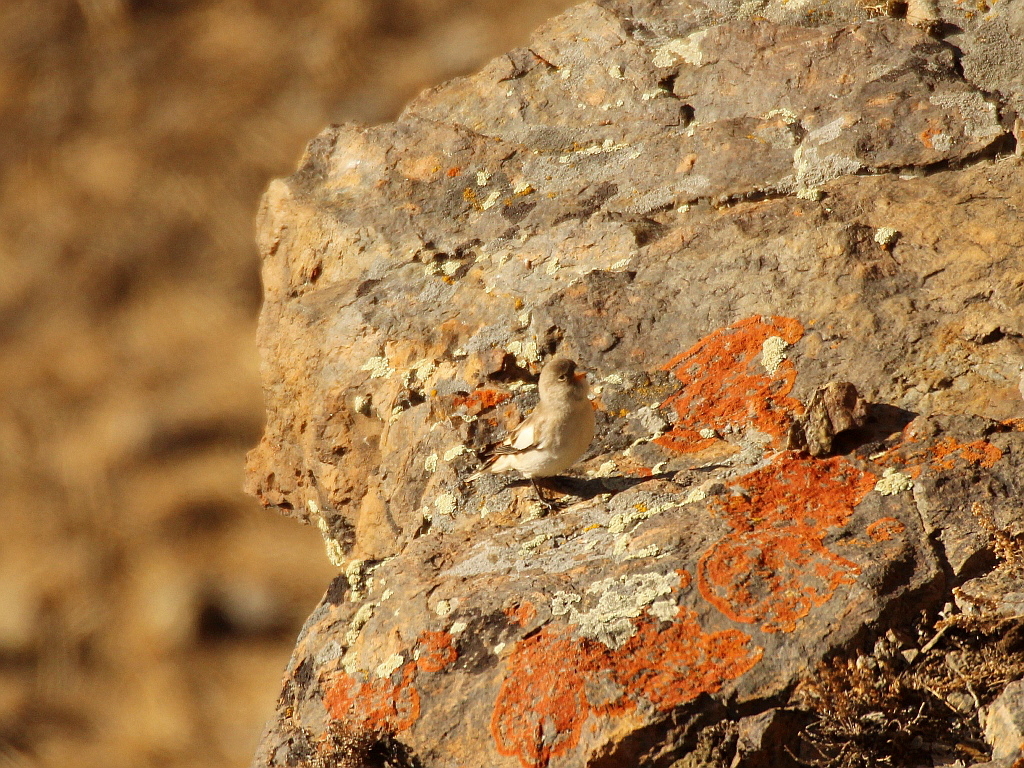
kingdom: Animalia
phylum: Chordata
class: Aves
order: Passeriformes
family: Passeridae
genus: Montifringilla
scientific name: Montifringilla nivalis
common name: White-winged snowfinch
